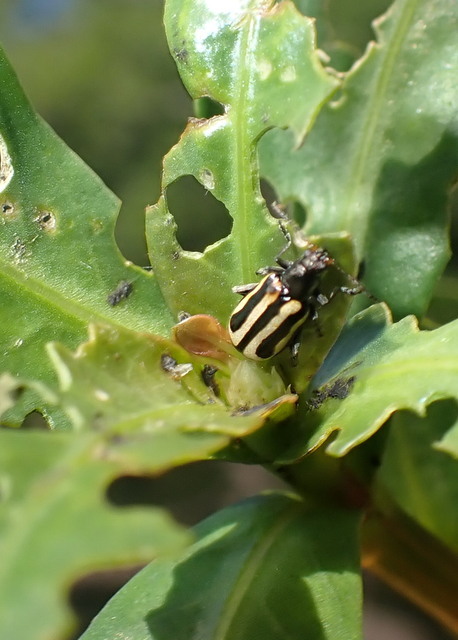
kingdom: Animalia
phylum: Arthropoda
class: Insecta
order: Coleoptera
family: Chrysomelidae
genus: Agasicles
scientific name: Agasicles hygrophila
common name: Alligatorweed flea beetle
